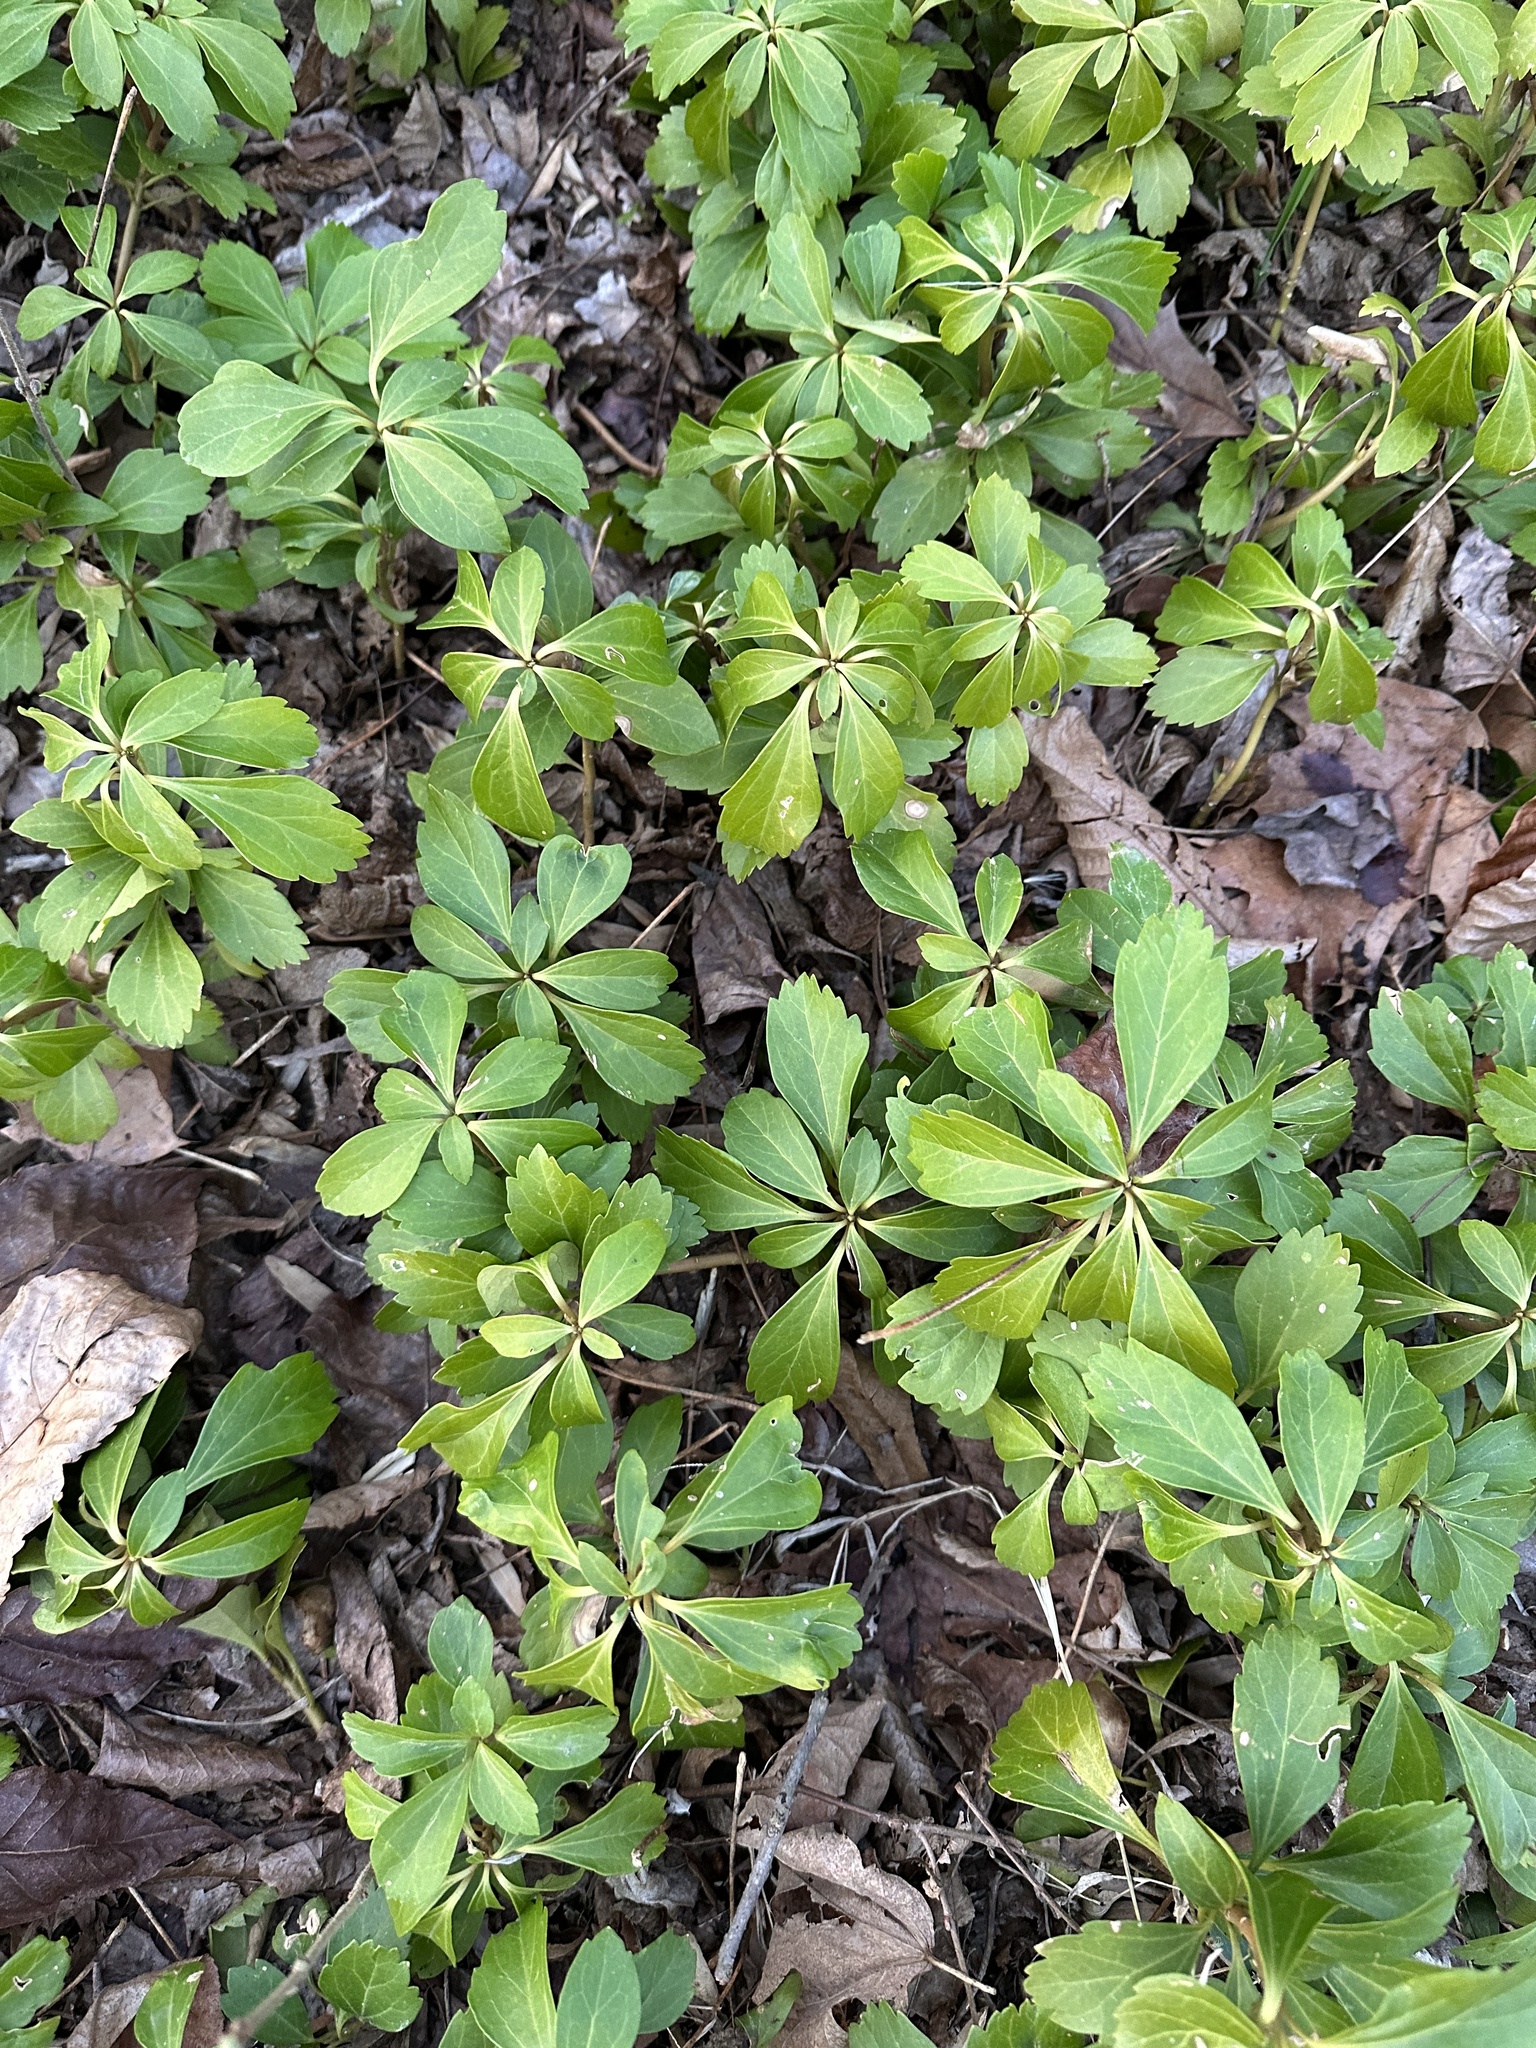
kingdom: Plantae
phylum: Tracheophyta
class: Magnoliopsida
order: Buxales
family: Buxaceae
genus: Pachysandra
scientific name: Pachysandra terminalis
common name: Japanese pachysandra
